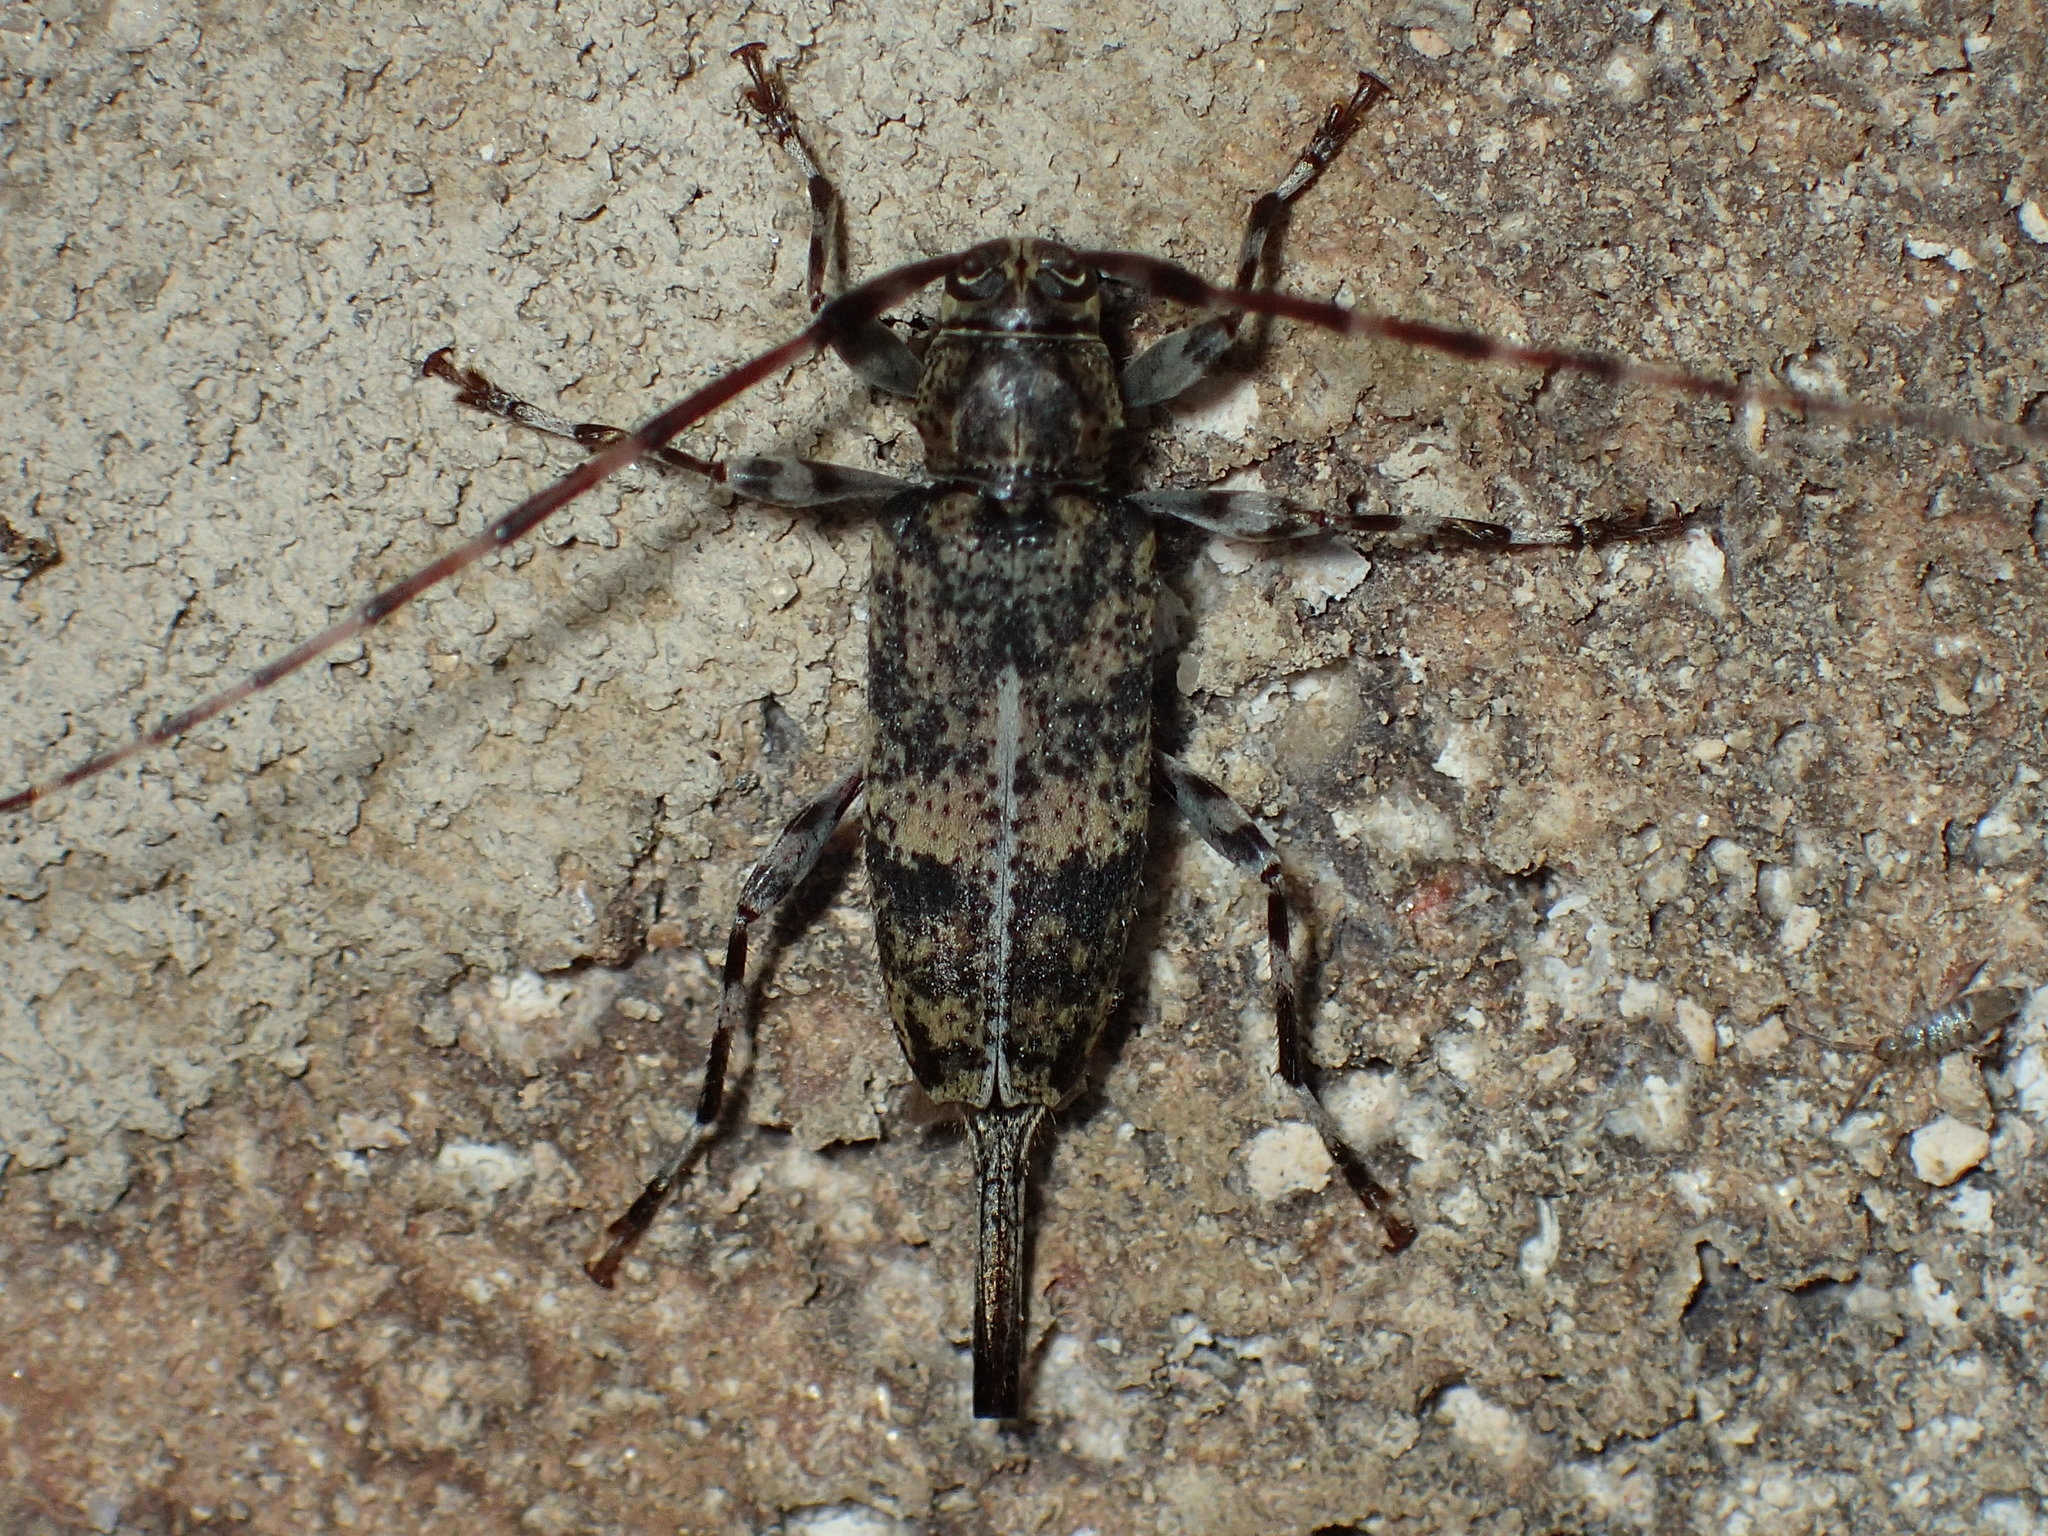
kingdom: Animalia
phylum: Arthropoda
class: Insecta
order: Coleoptera
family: Cerambycidae
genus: Graphisurus
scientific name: Graphisurus fasciatus
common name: Banded graphisurus
